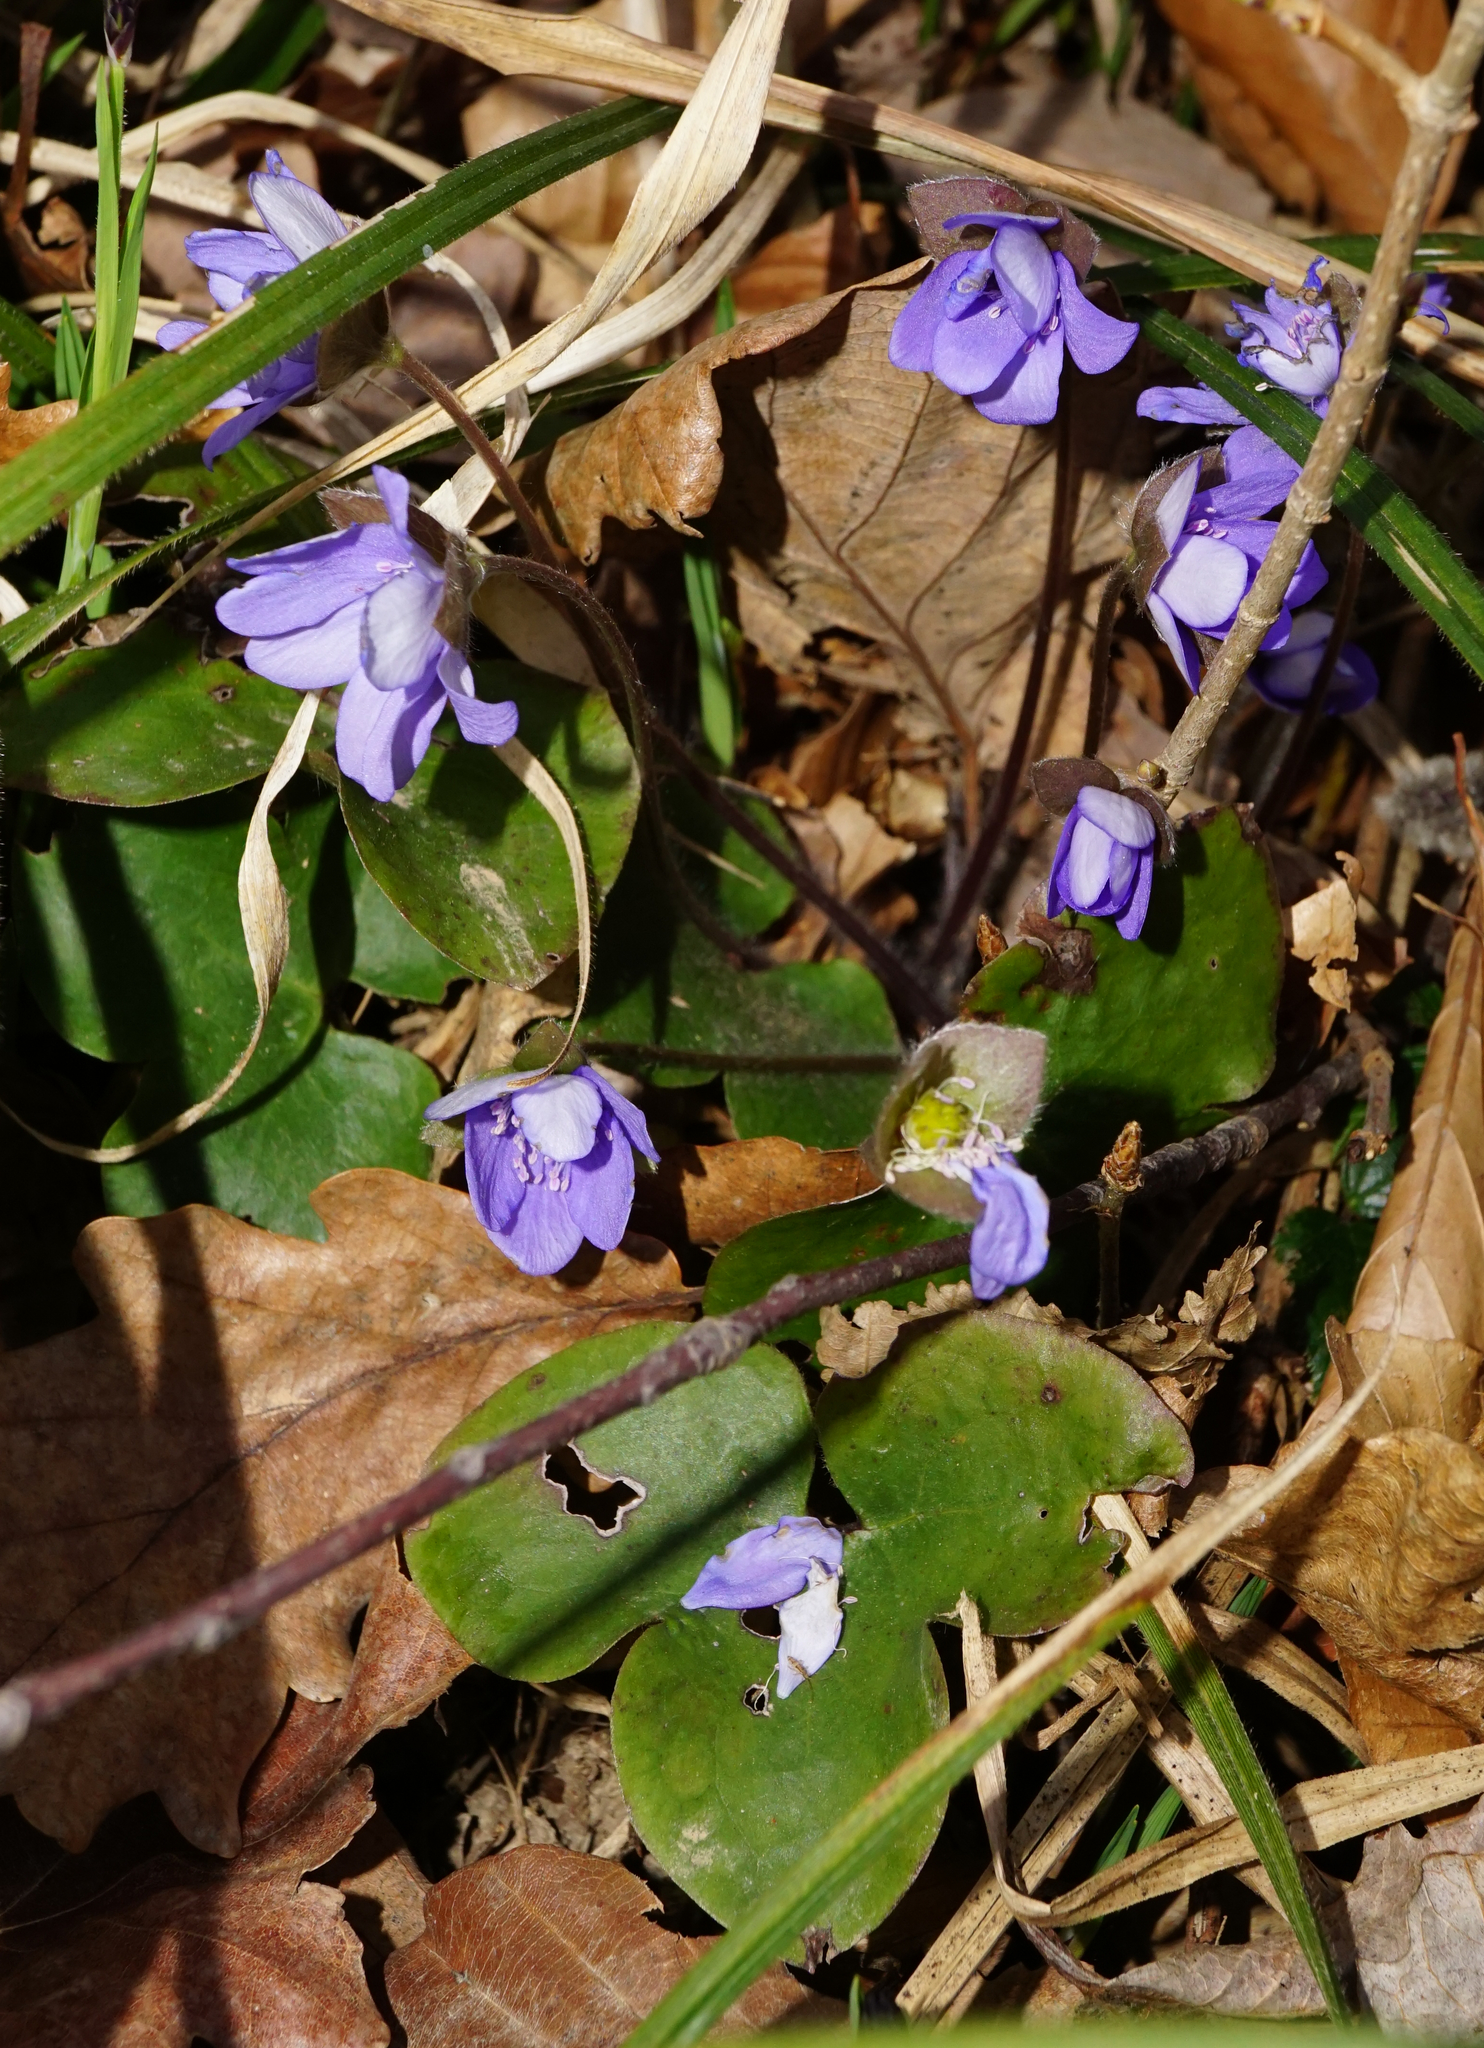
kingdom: Plantae
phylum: Tracheophyta
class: Magnoliopsida
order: Ranunculales
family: Ranunculaceae
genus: Hepatica
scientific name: Hepatica nobilis
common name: Liverleaf
